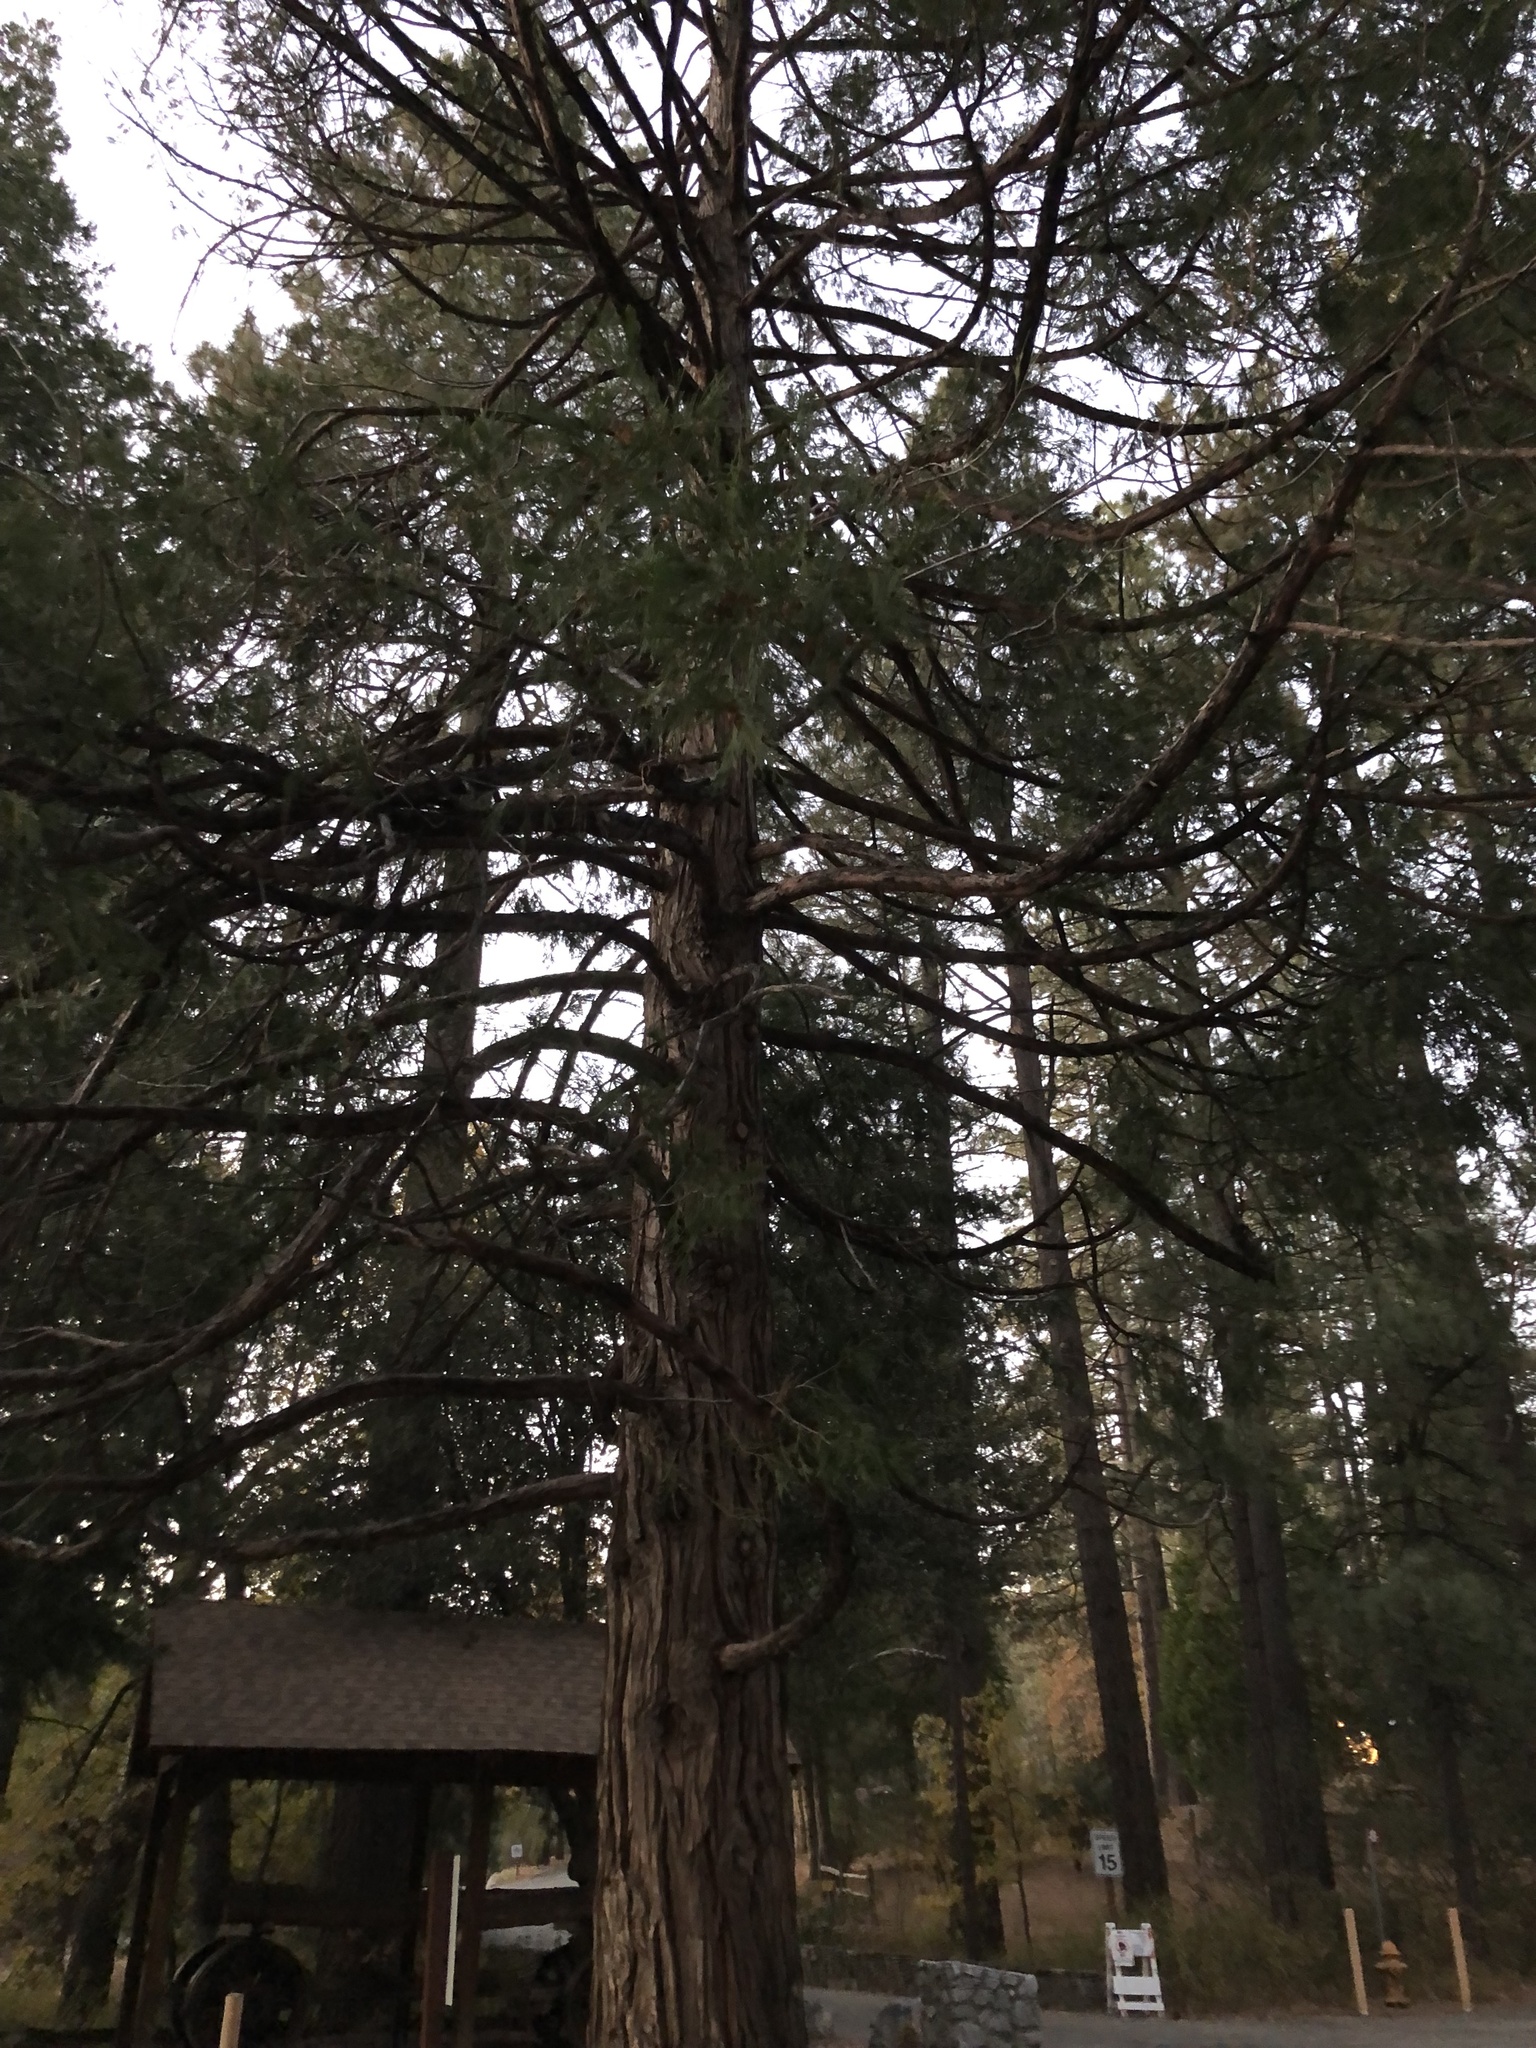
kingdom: Plantae
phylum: Tracheophyta
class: Pinopsida
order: Pinales
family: Cupressaceae
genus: Calocedrus
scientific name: Calocedrus decurrens
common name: Californian incense-cedar
